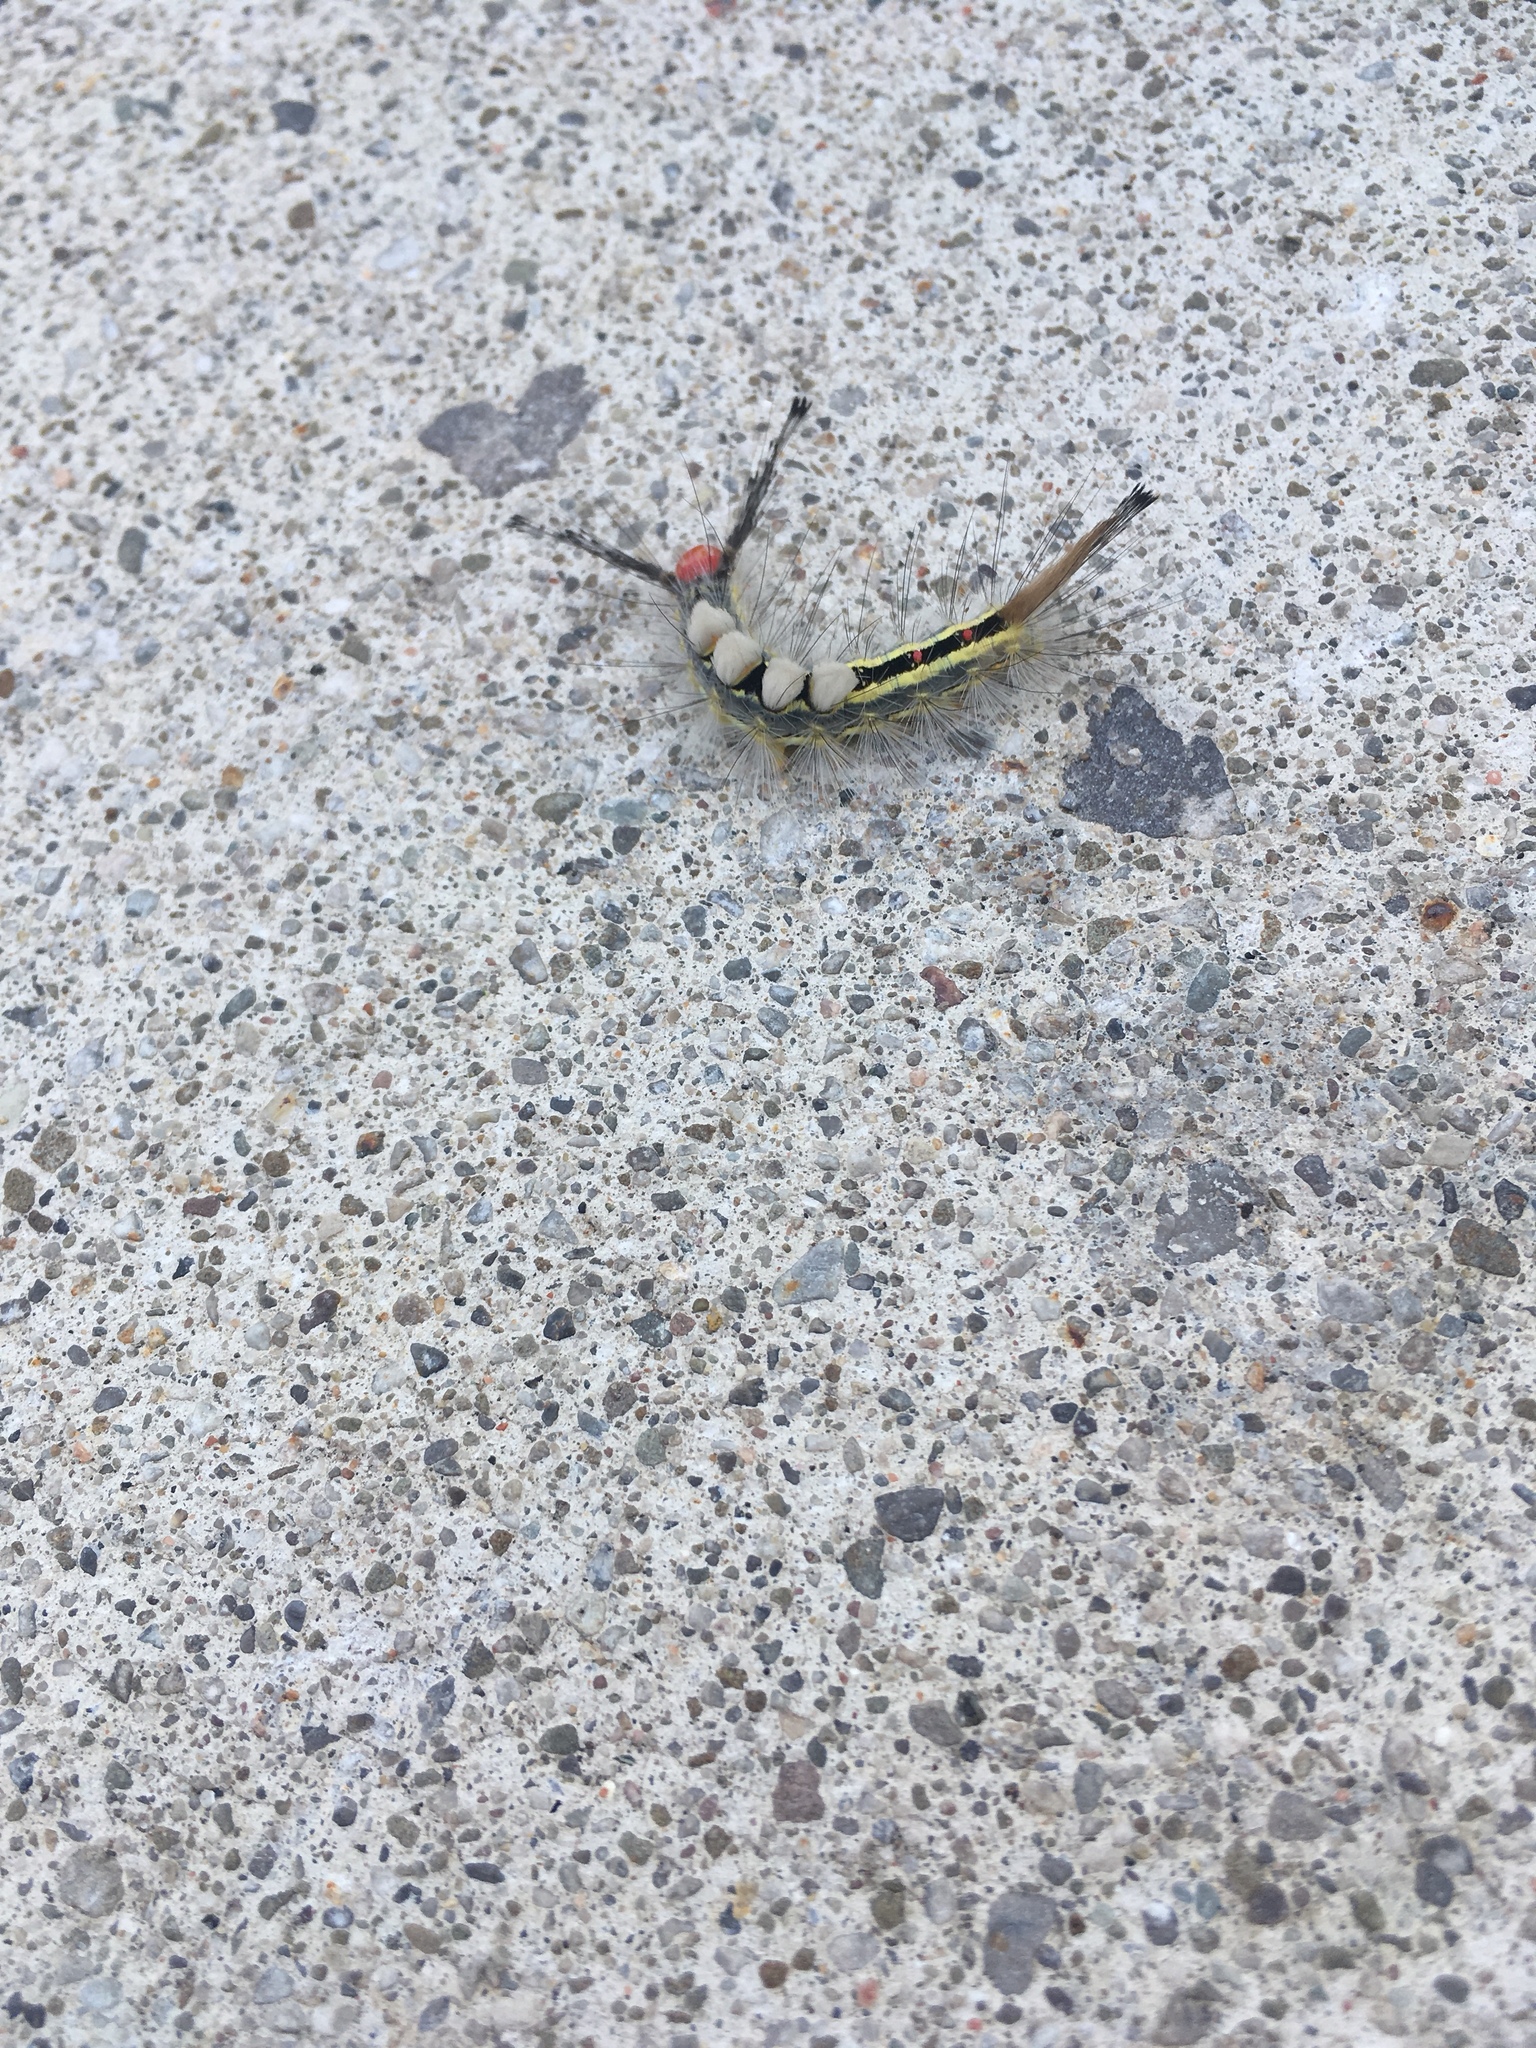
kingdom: Animalia
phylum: Arthropoda
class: Insecta
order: Lepidoptera
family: Erebidae
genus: Orgyia
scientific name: Orgyia leucostigma
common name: White-marked tussock moth
